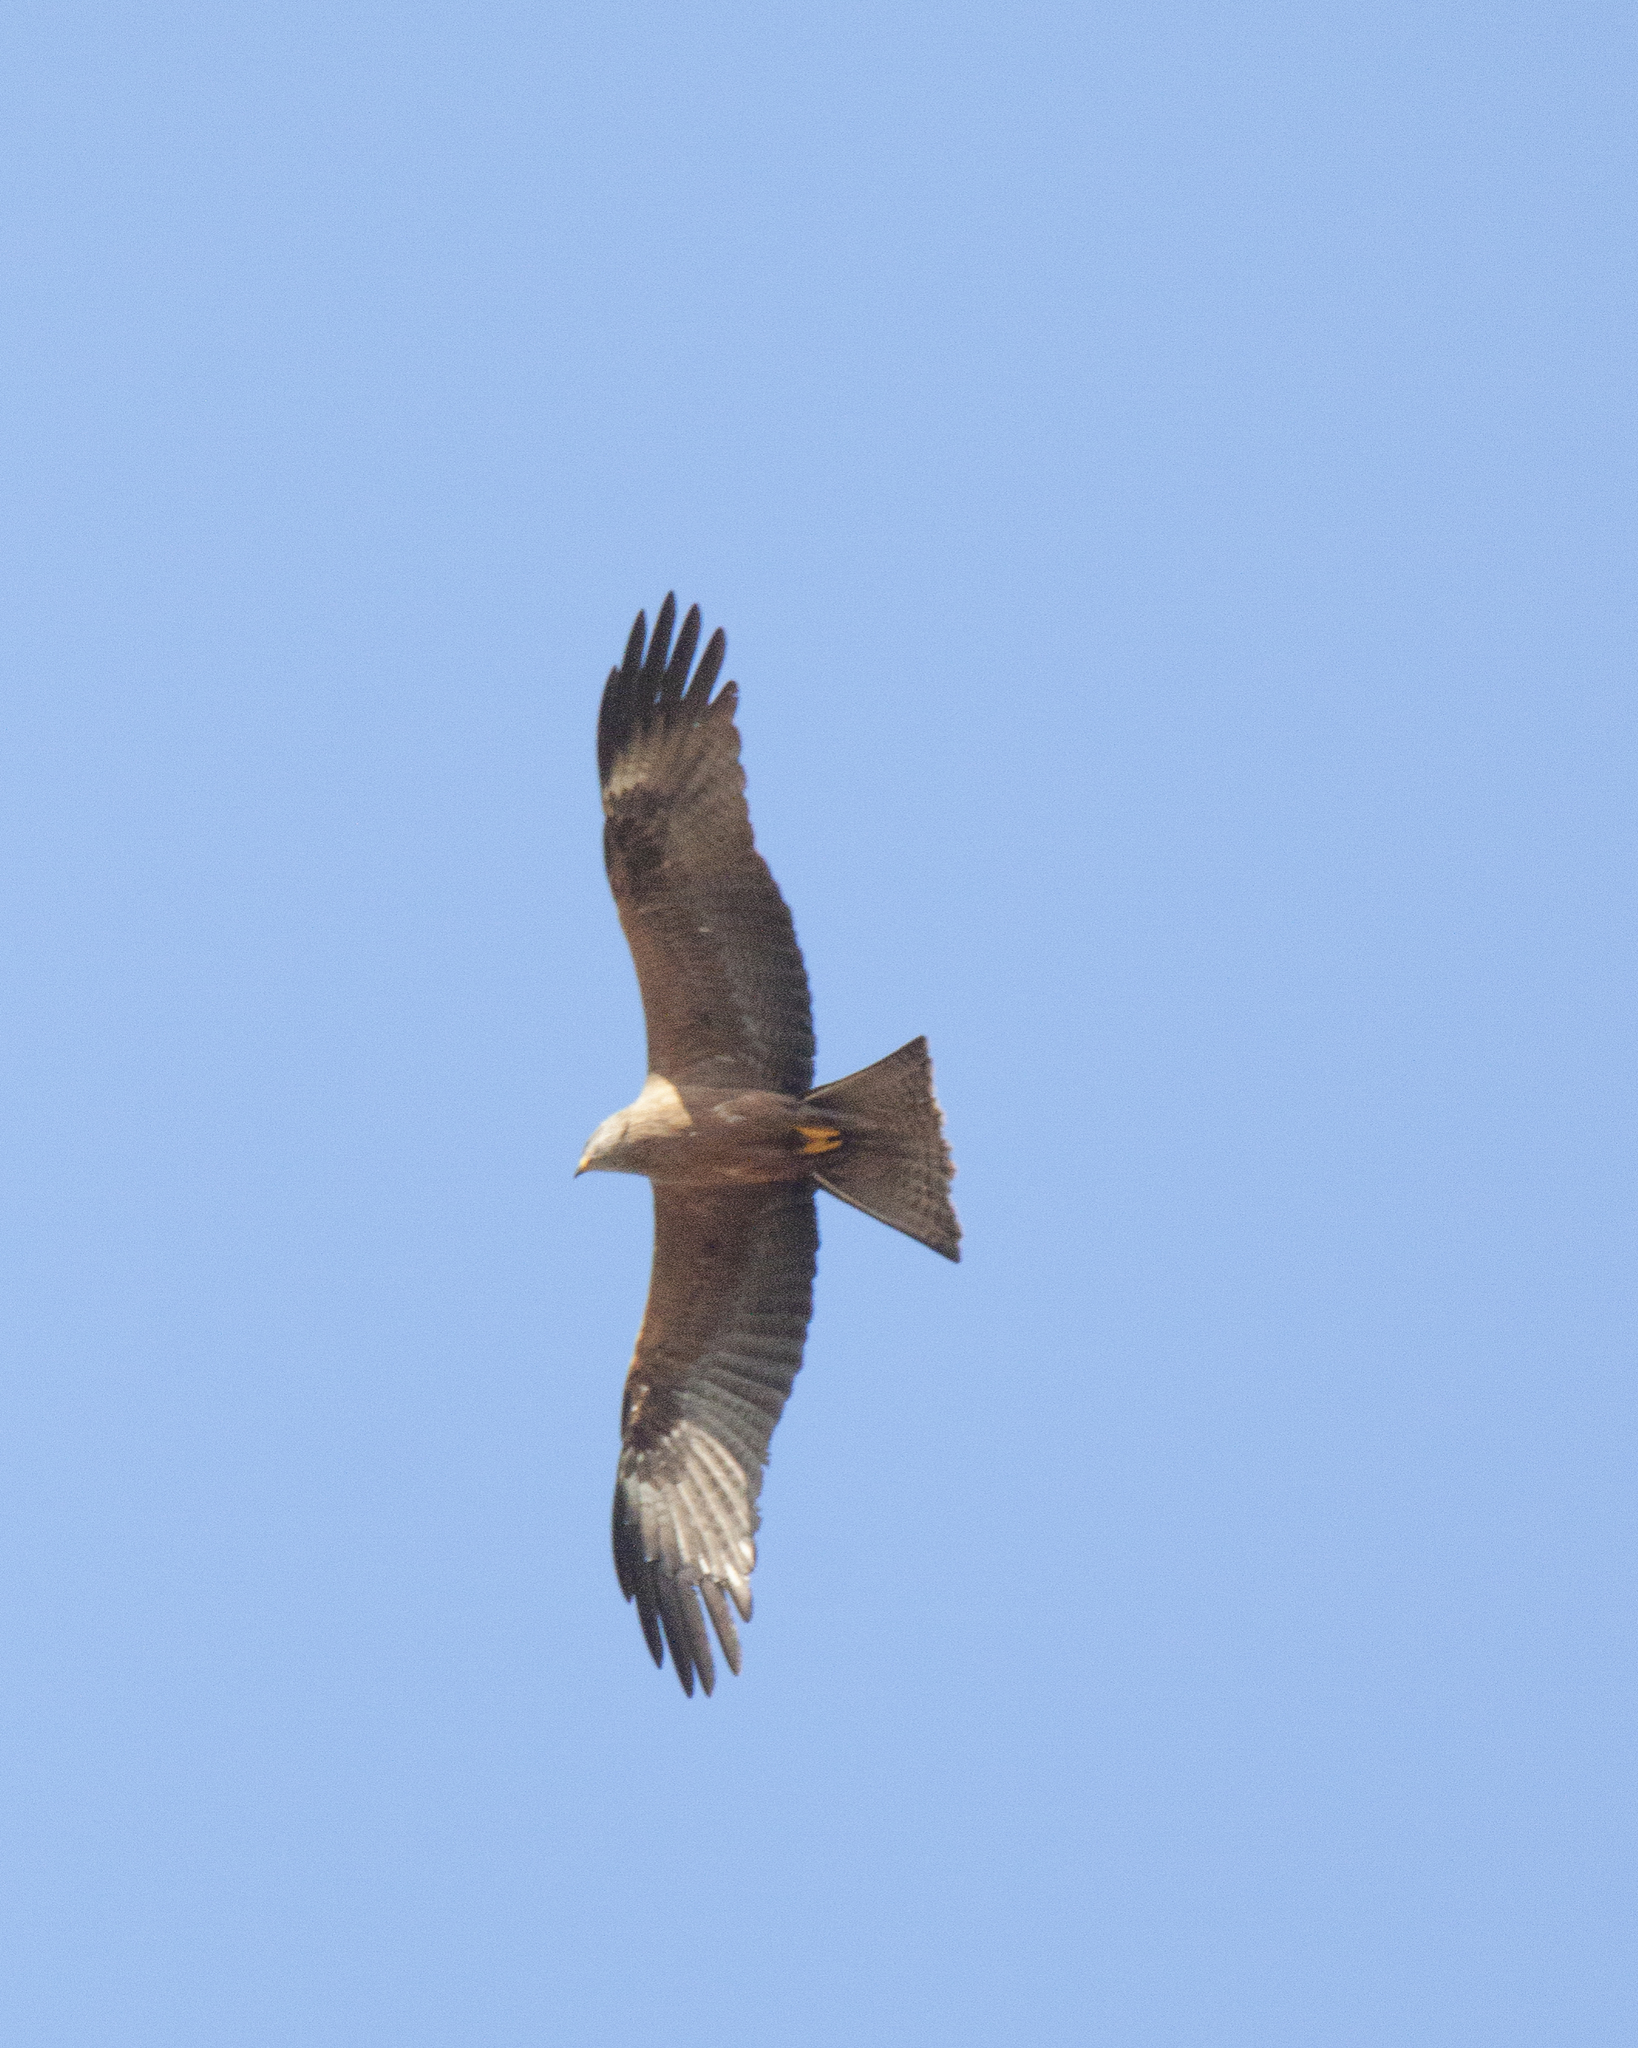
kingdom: Animalia
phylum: Chordata
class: Aves
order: Accipitriformes
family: Accipitridae
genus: Milvus
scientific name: Milvus migrans
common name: Black kite
